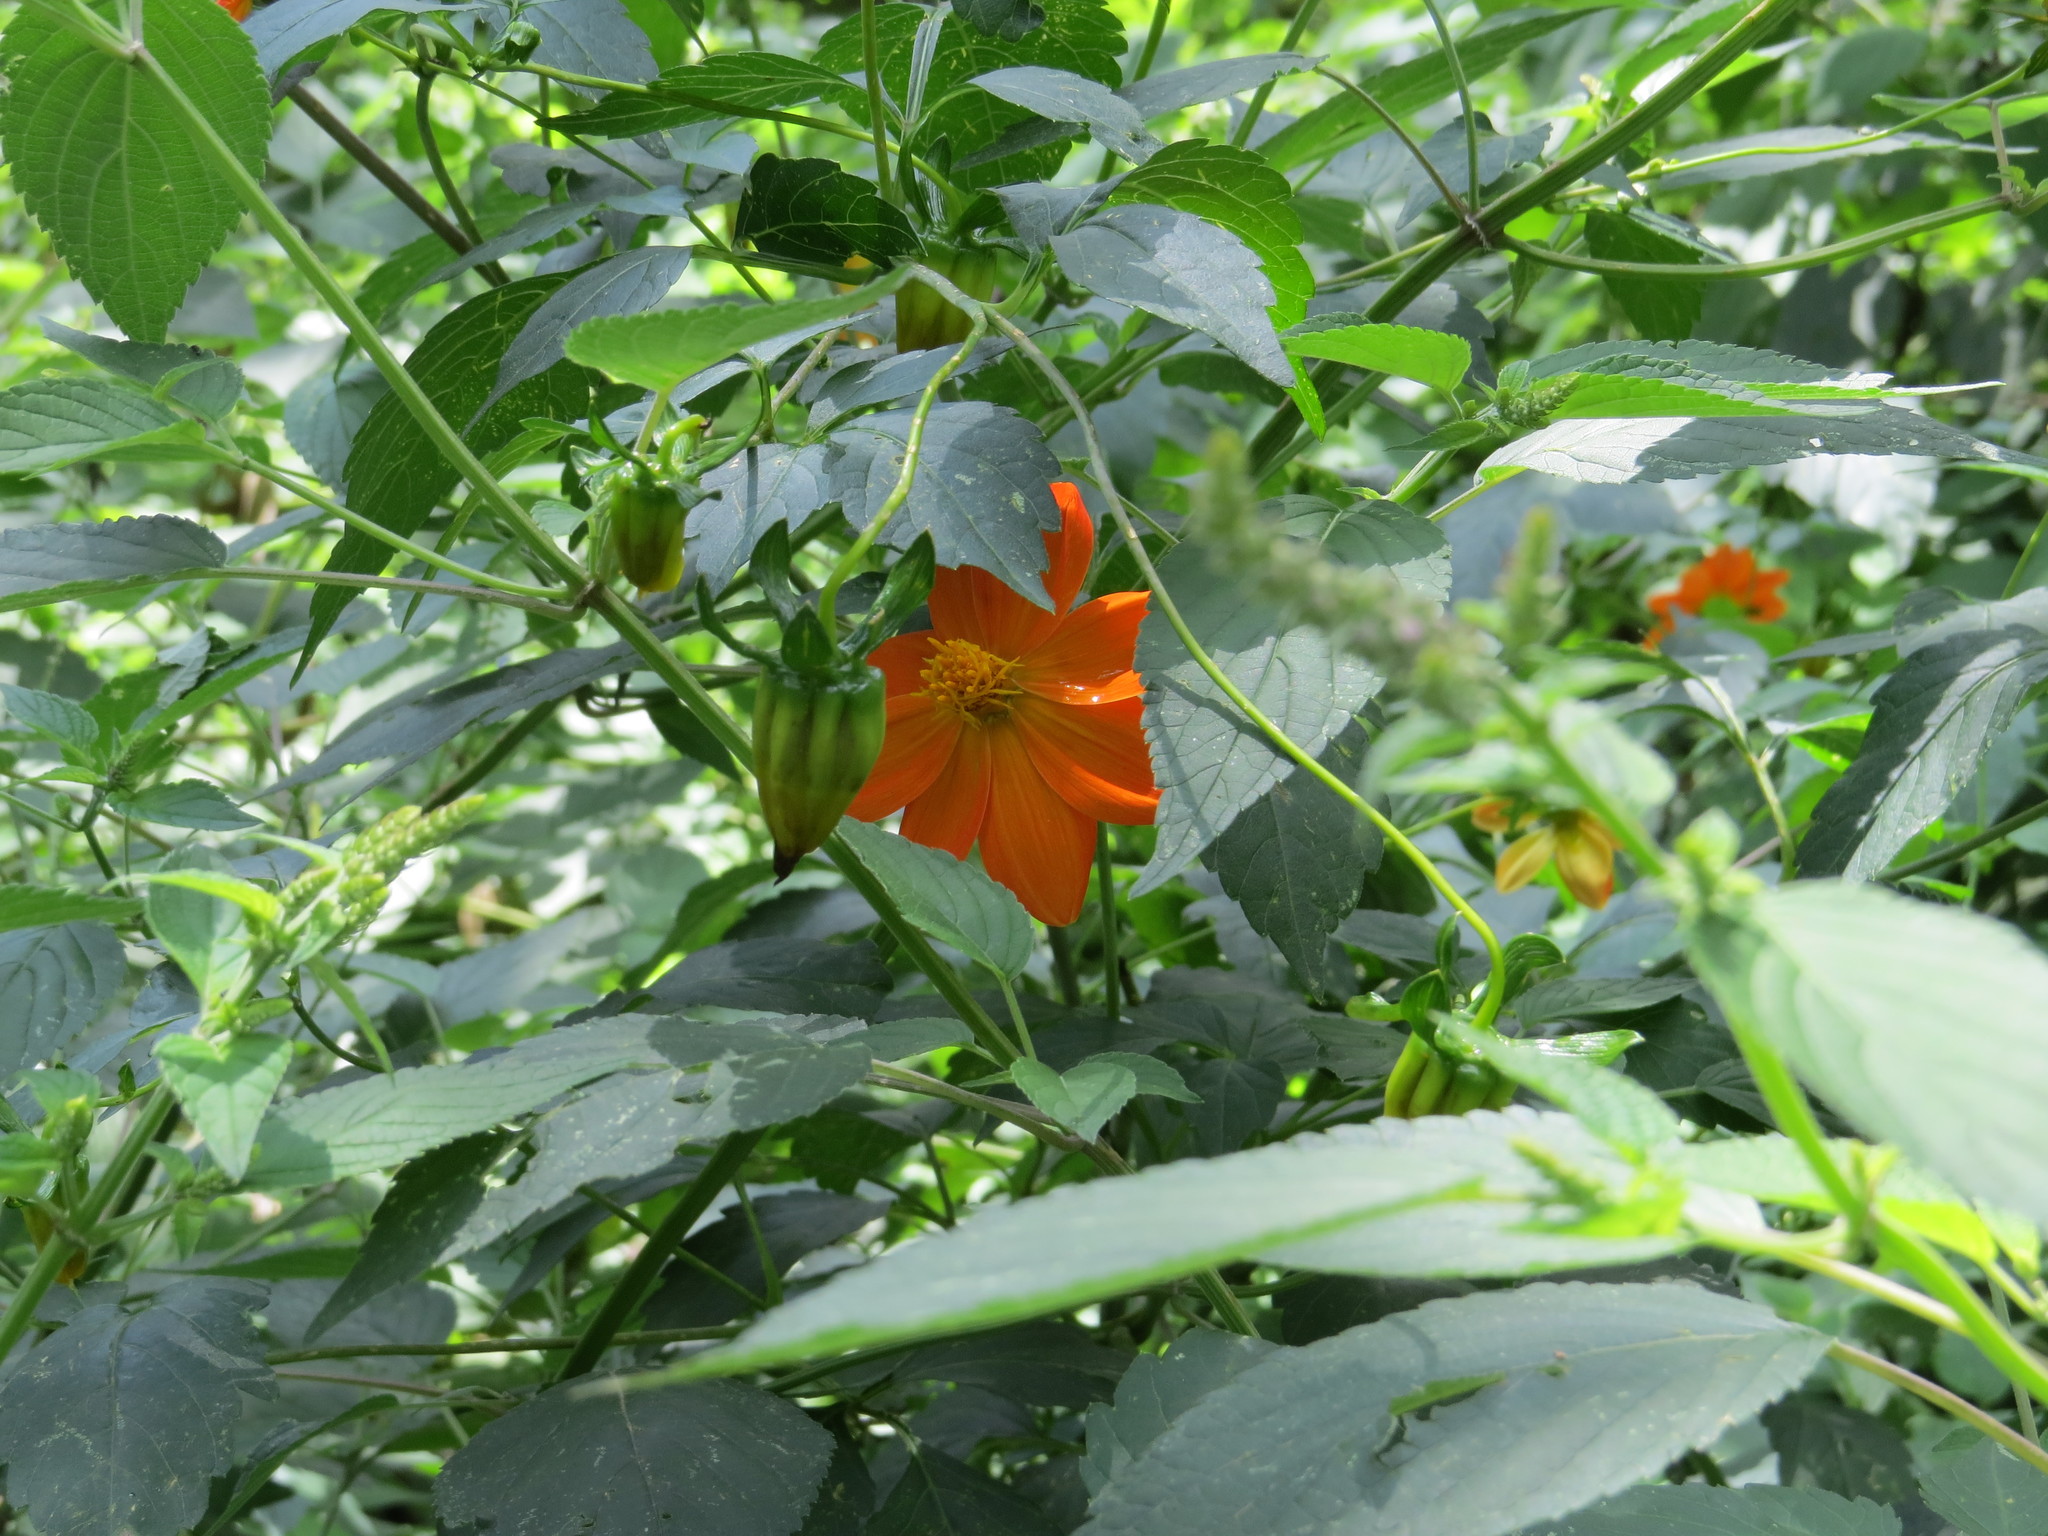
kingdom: Plantae
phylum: Tracheophyta
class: Magnoliopsida
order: Asterales
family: Asteraceae
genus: Dahlia
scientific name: Dahlia coccinea
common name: Red dahlia
